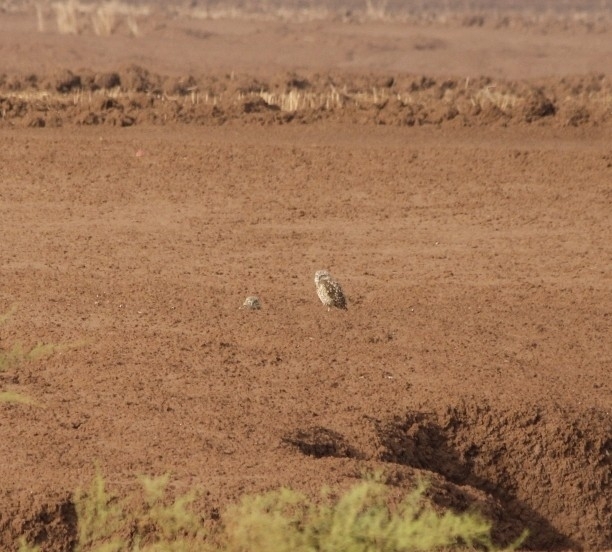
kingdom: Animalia
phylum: Chordata
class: Aves
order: Strigiformes
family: Strigidae
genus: Athene
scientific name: Athene cunicularia
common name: Burrowing owl
